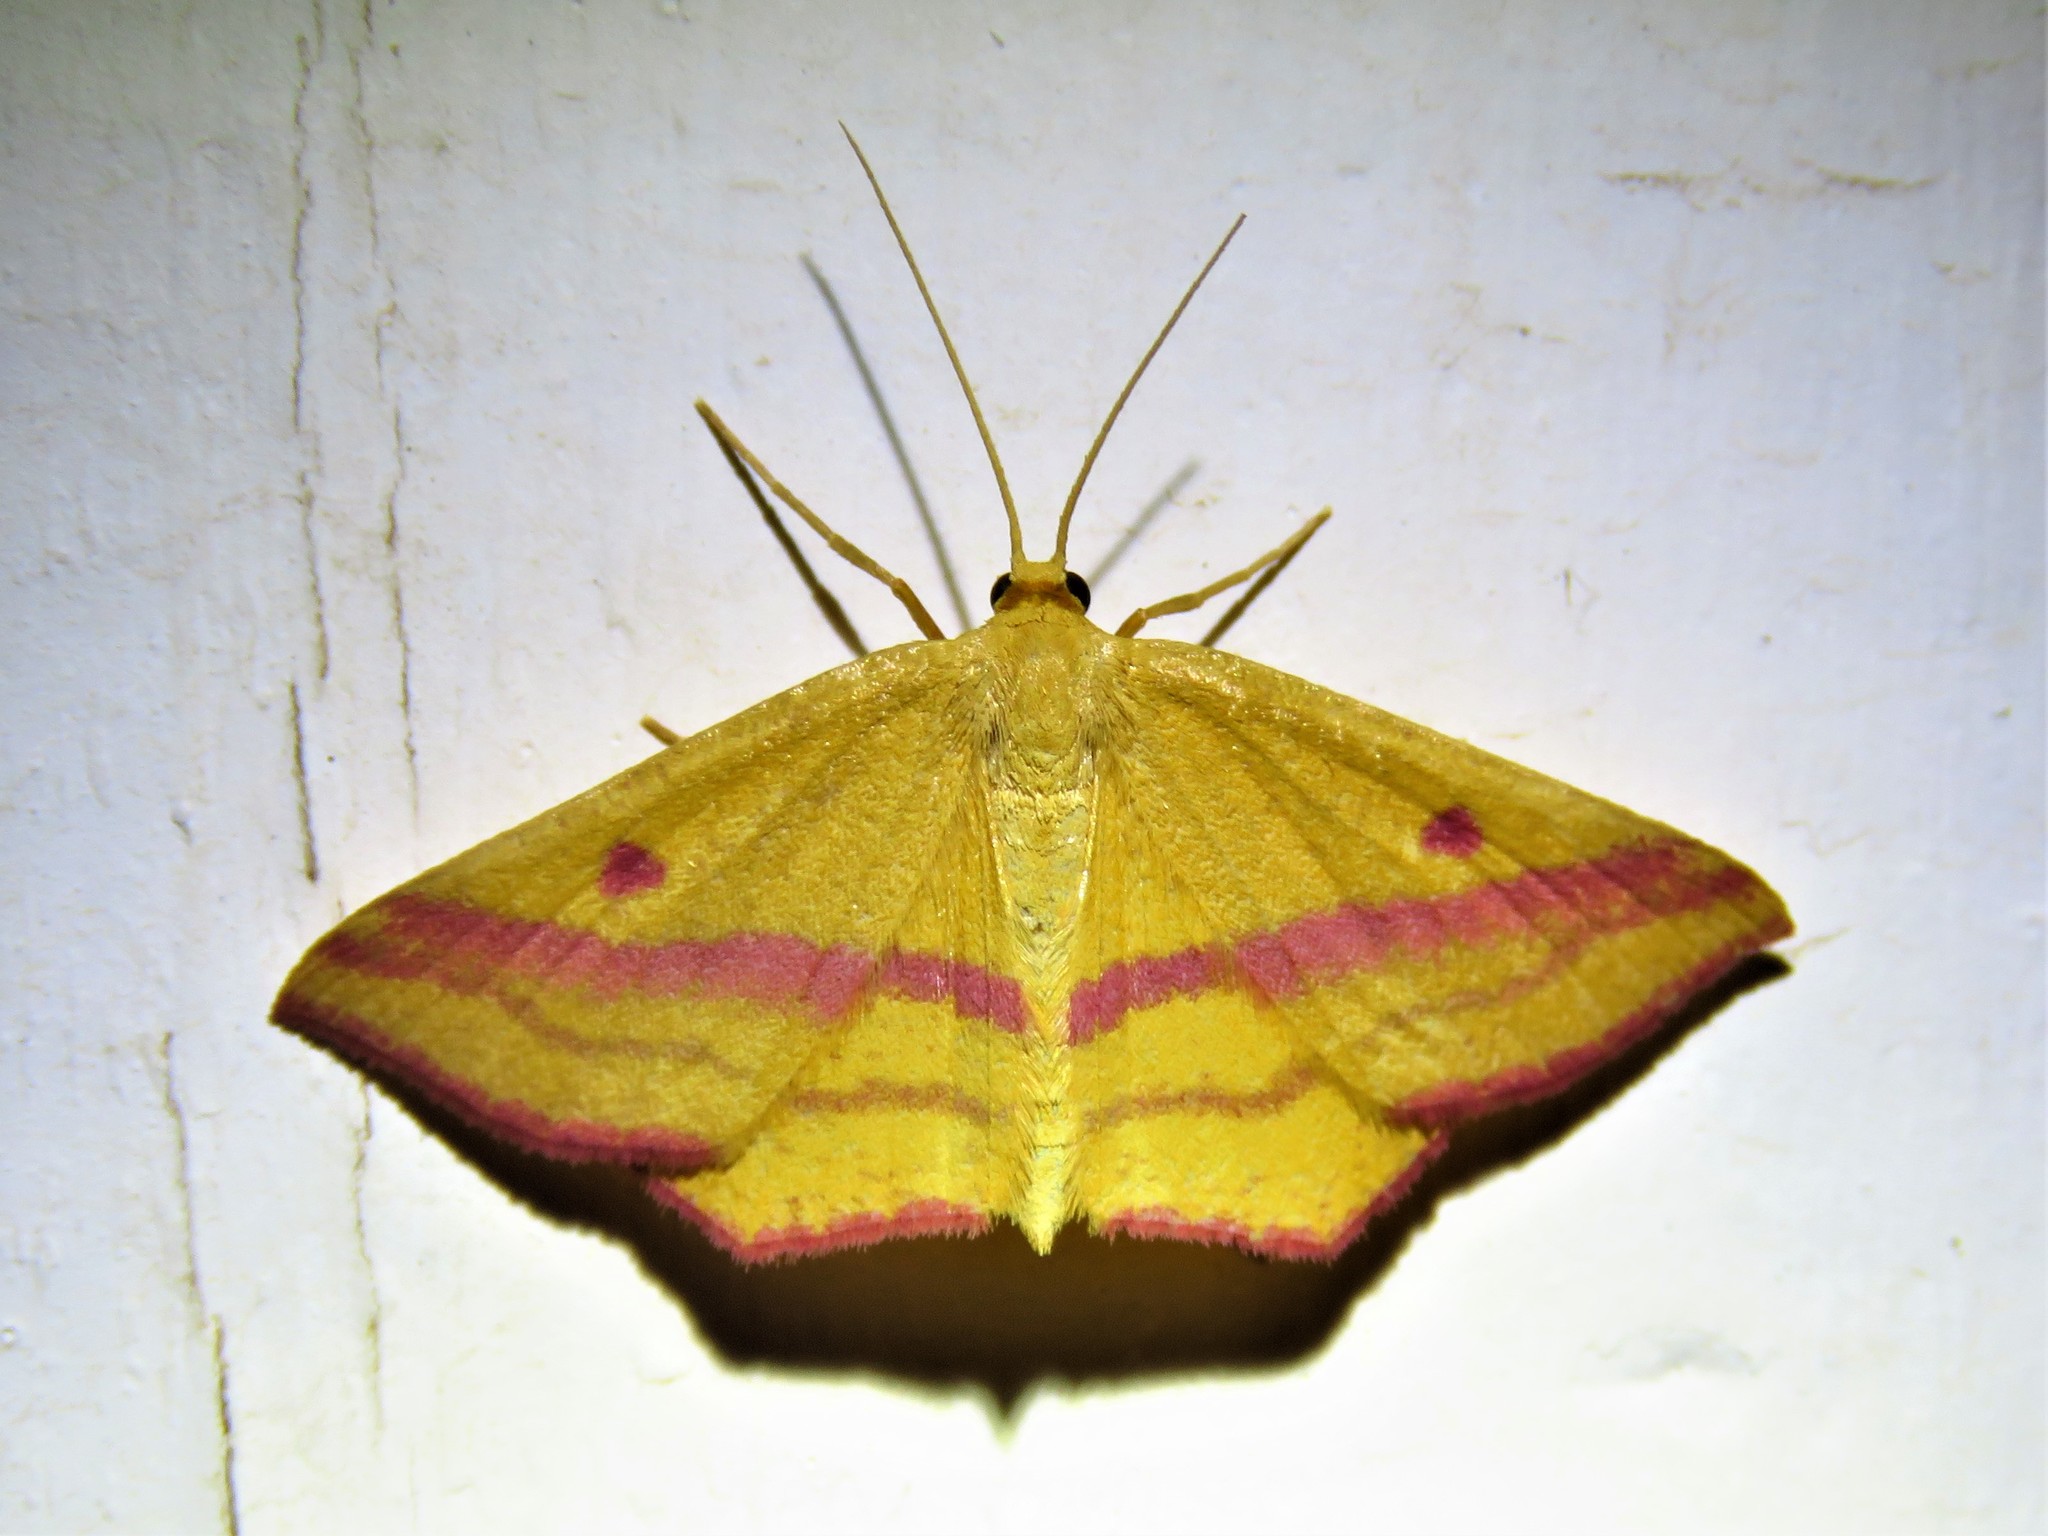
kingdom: Animalia
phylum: Arthropoda
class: Insecta
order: Lepidoptera
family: Geometridae
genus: Haematopis
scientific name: Haematopis grataria
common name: Chickweed geometer
